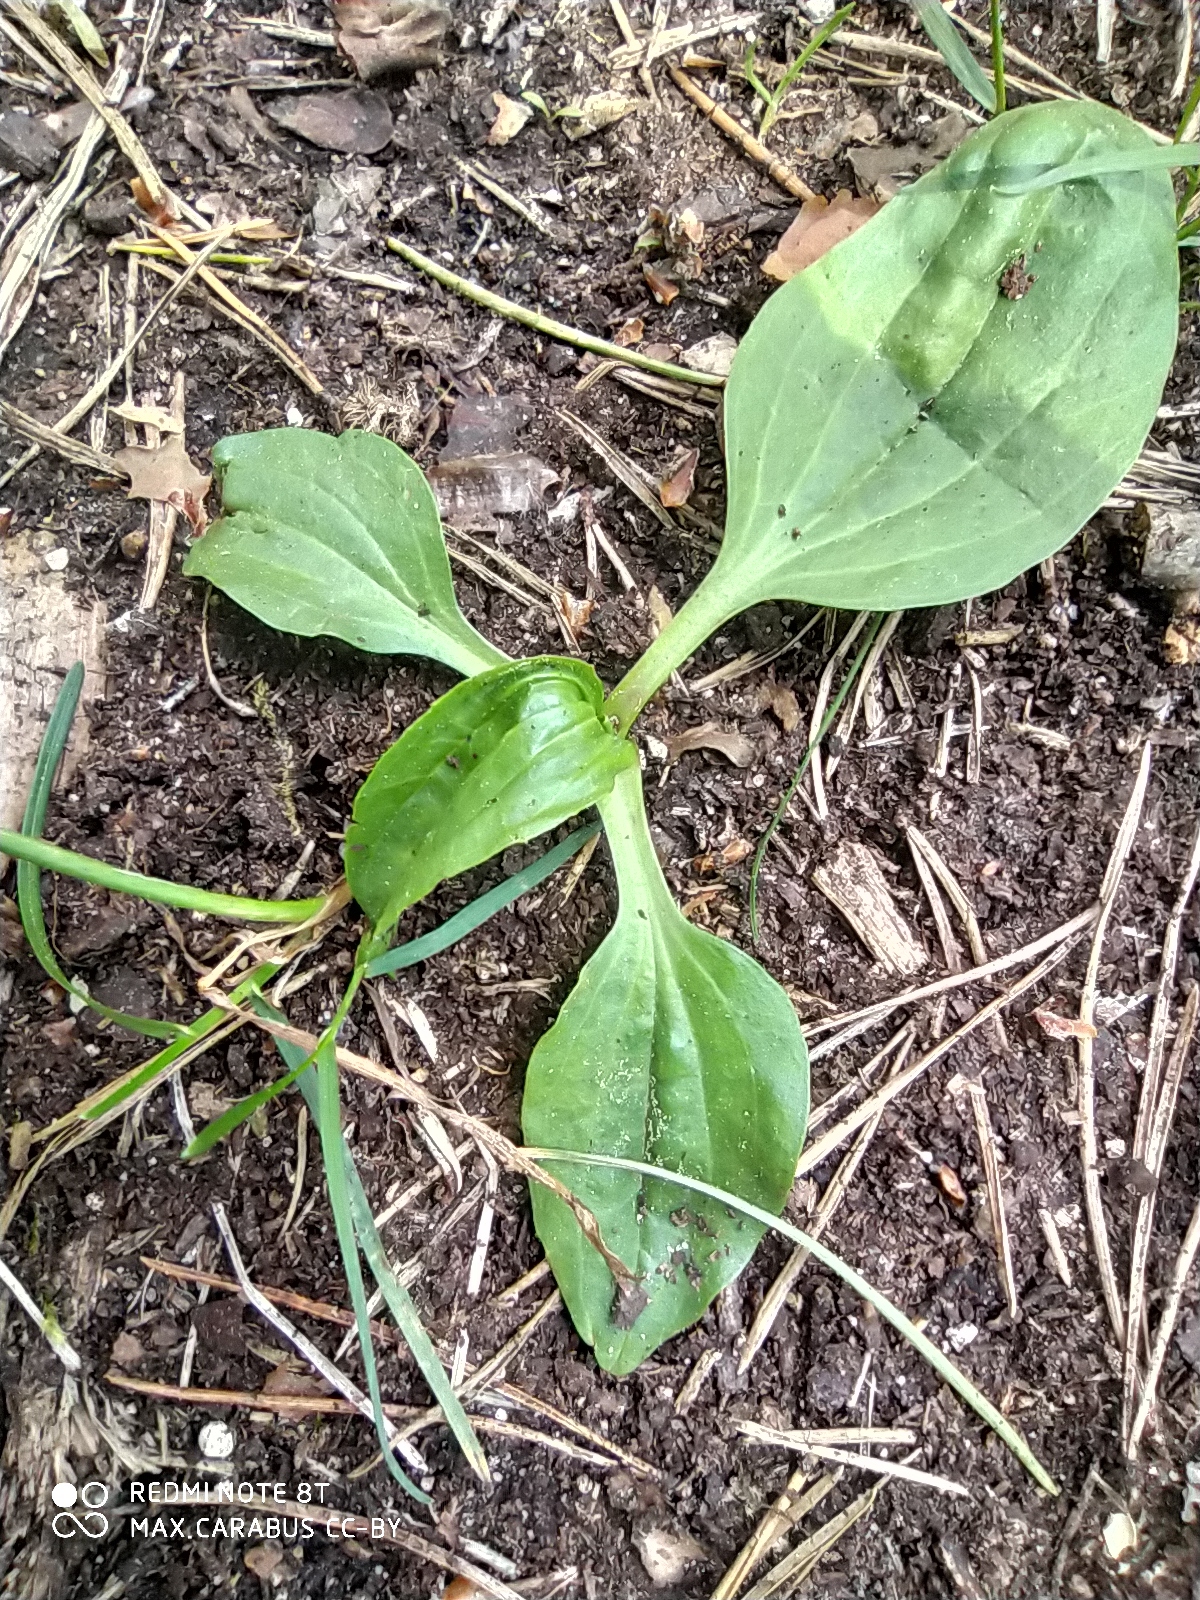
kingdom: Plantae
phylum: Tracheophyta
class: Magnoliopsida
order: Lamiales
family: Plantaginaceae
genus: Plantago
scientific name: Plantago major
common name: Common plantain
